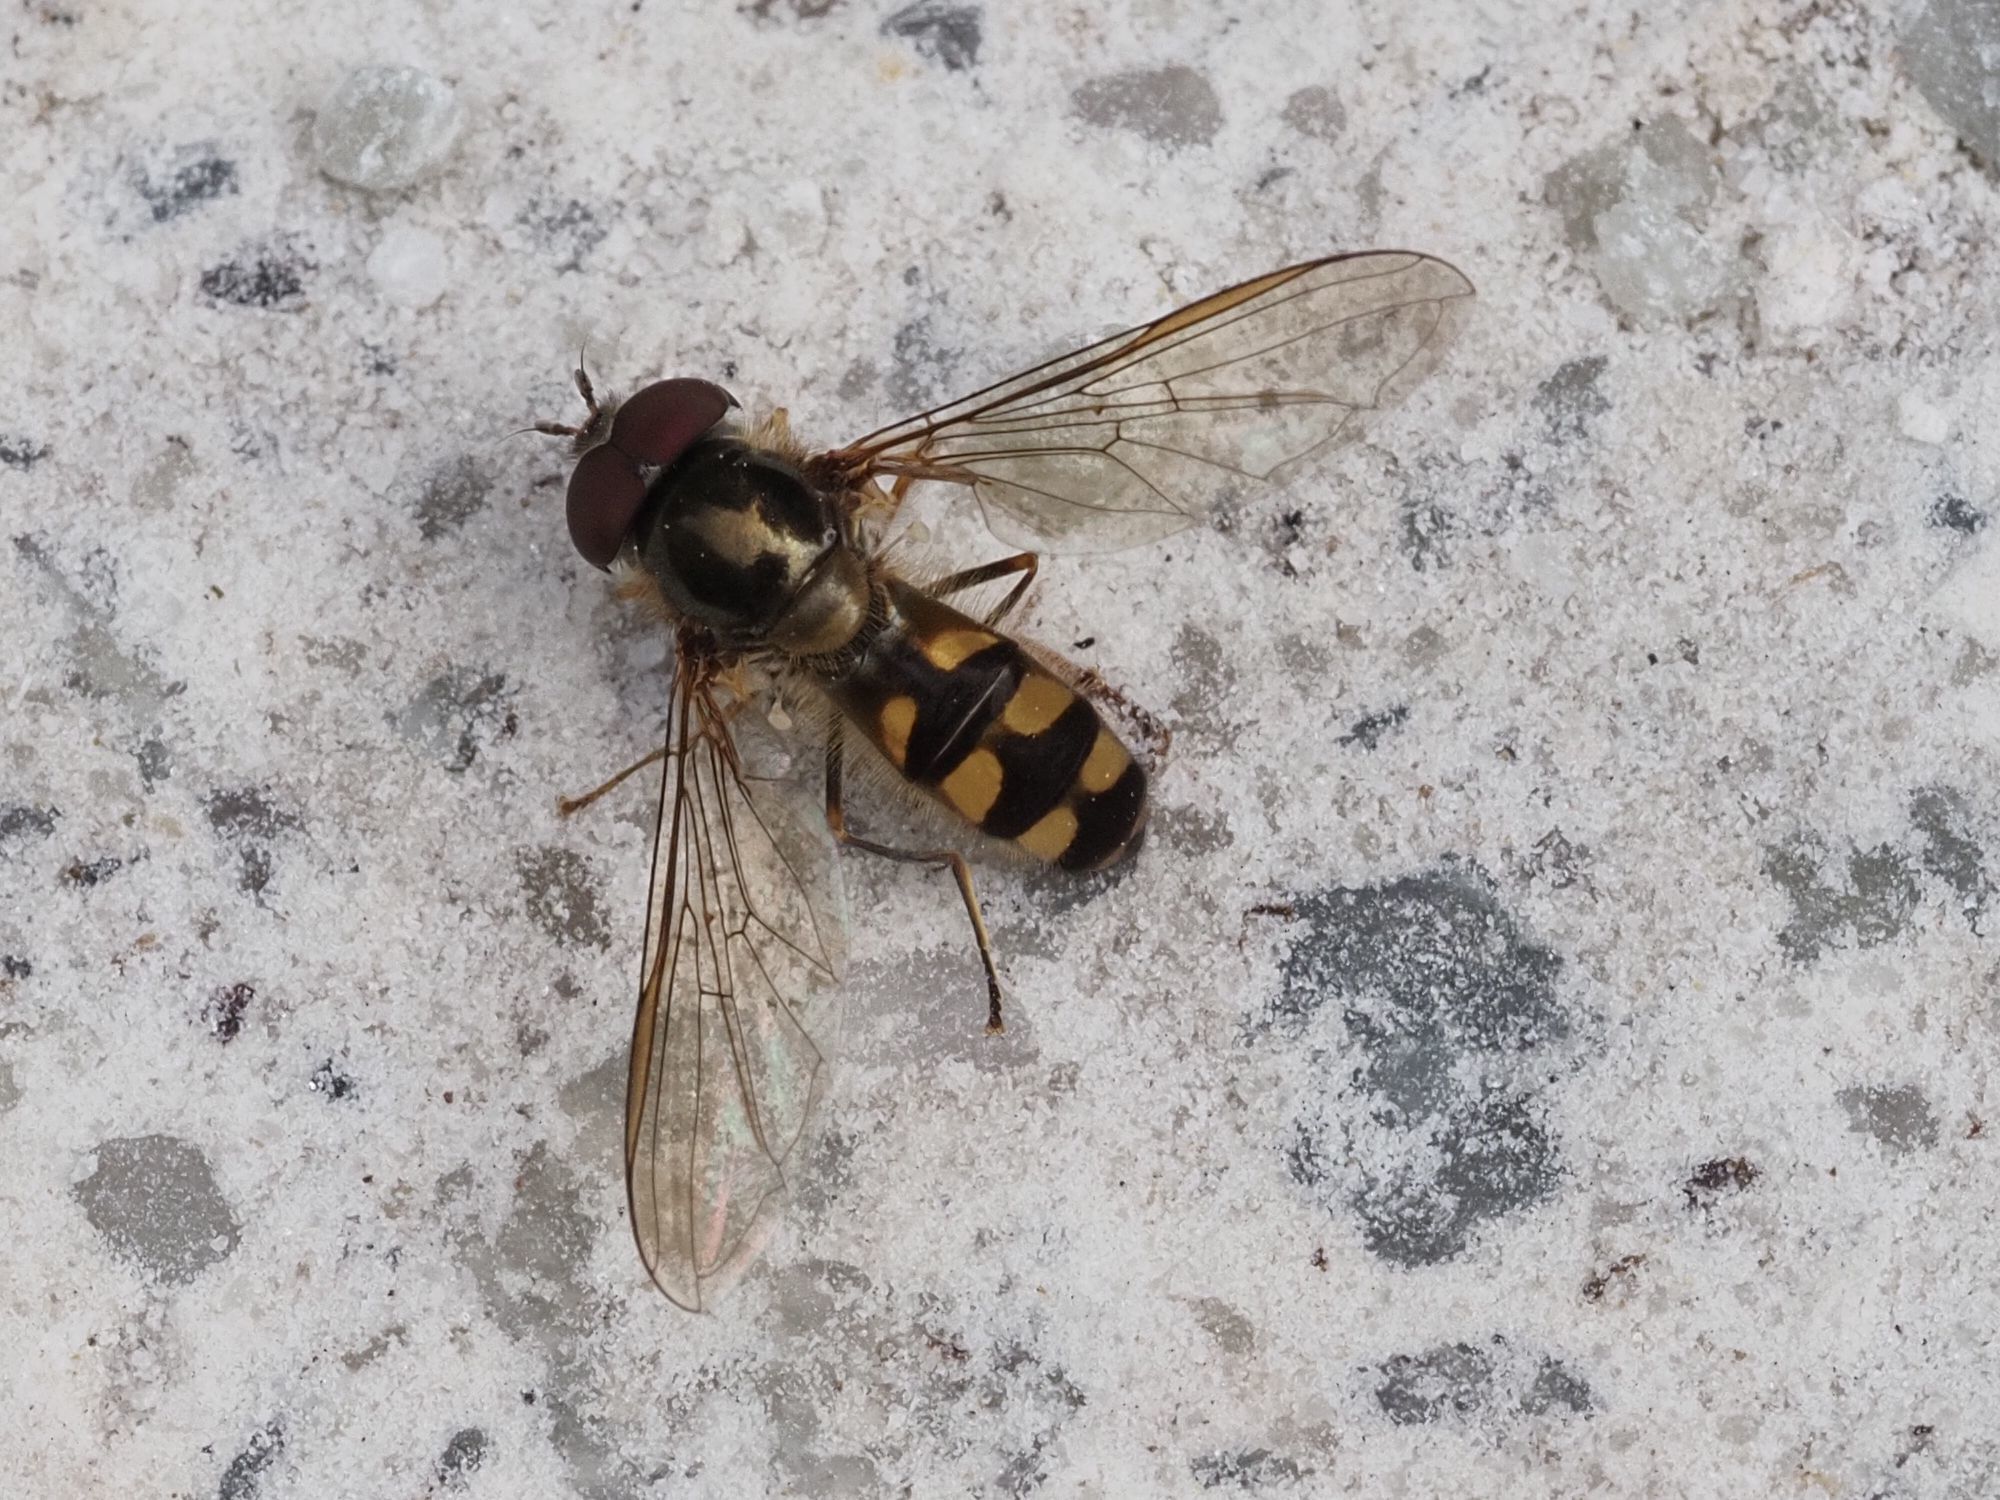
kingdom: Animalia
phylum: Arthropoda
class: Insecta
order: Diptera
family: Syrphidae
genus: Meliscaeva
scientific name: Meliscaeva auricollis
